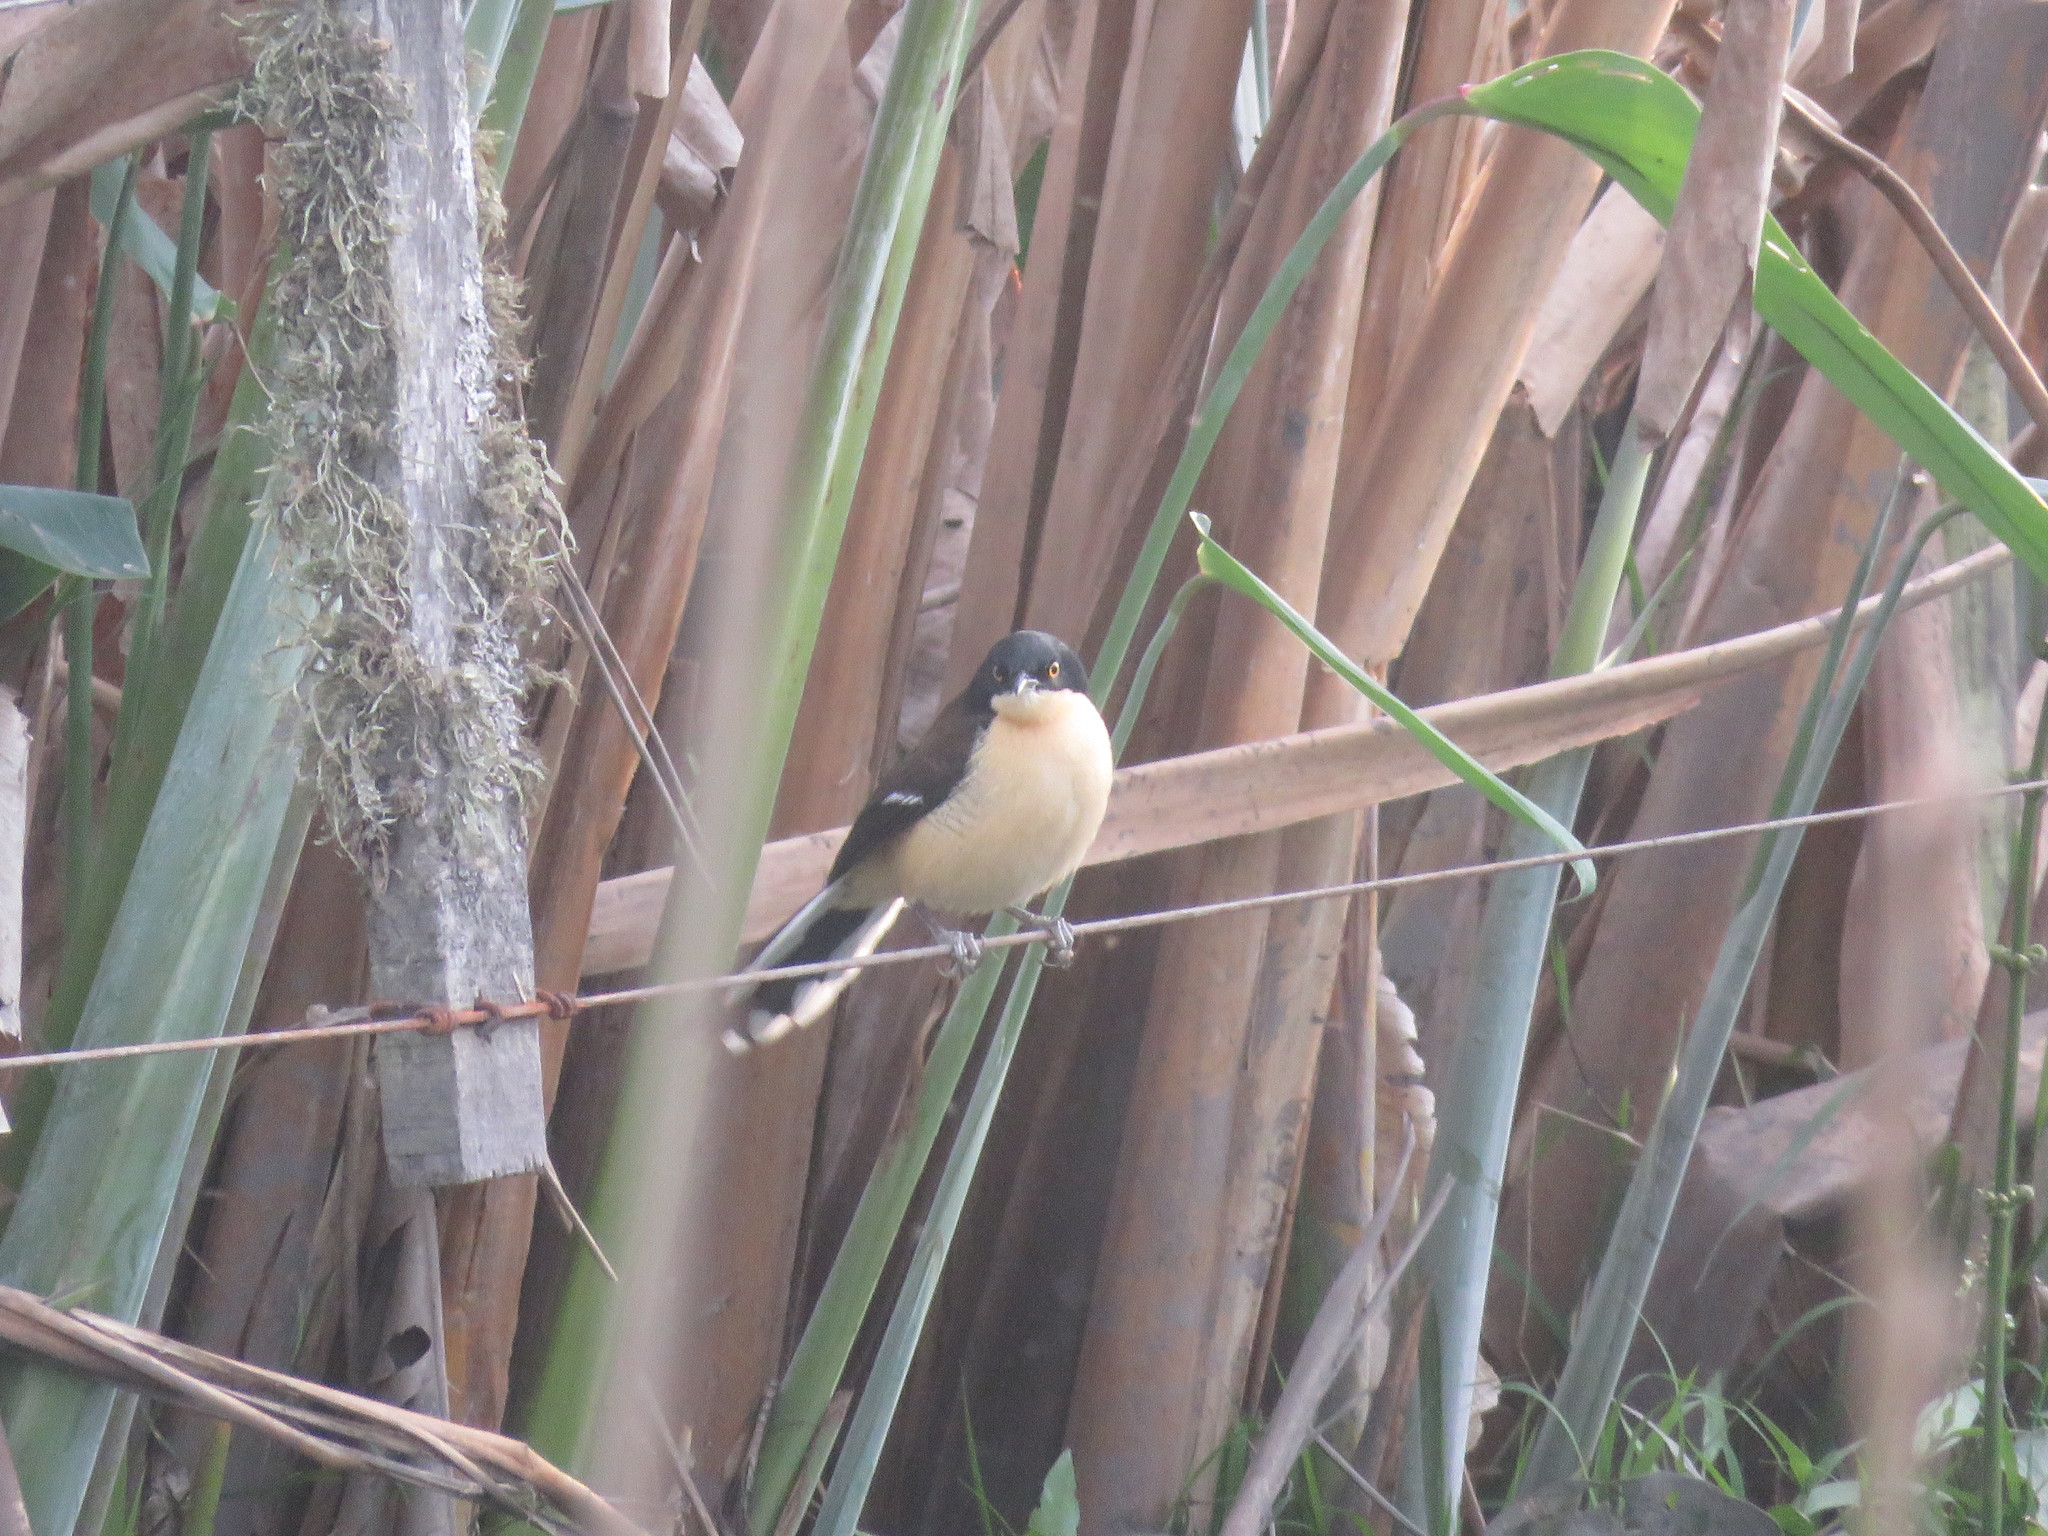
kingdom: Animalia
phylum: Chordata
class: Aves
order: Passeriformes
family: Donacobiidae
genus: Donacobius
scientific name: Donacobius atricapilla
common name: Black-capped donacobius
